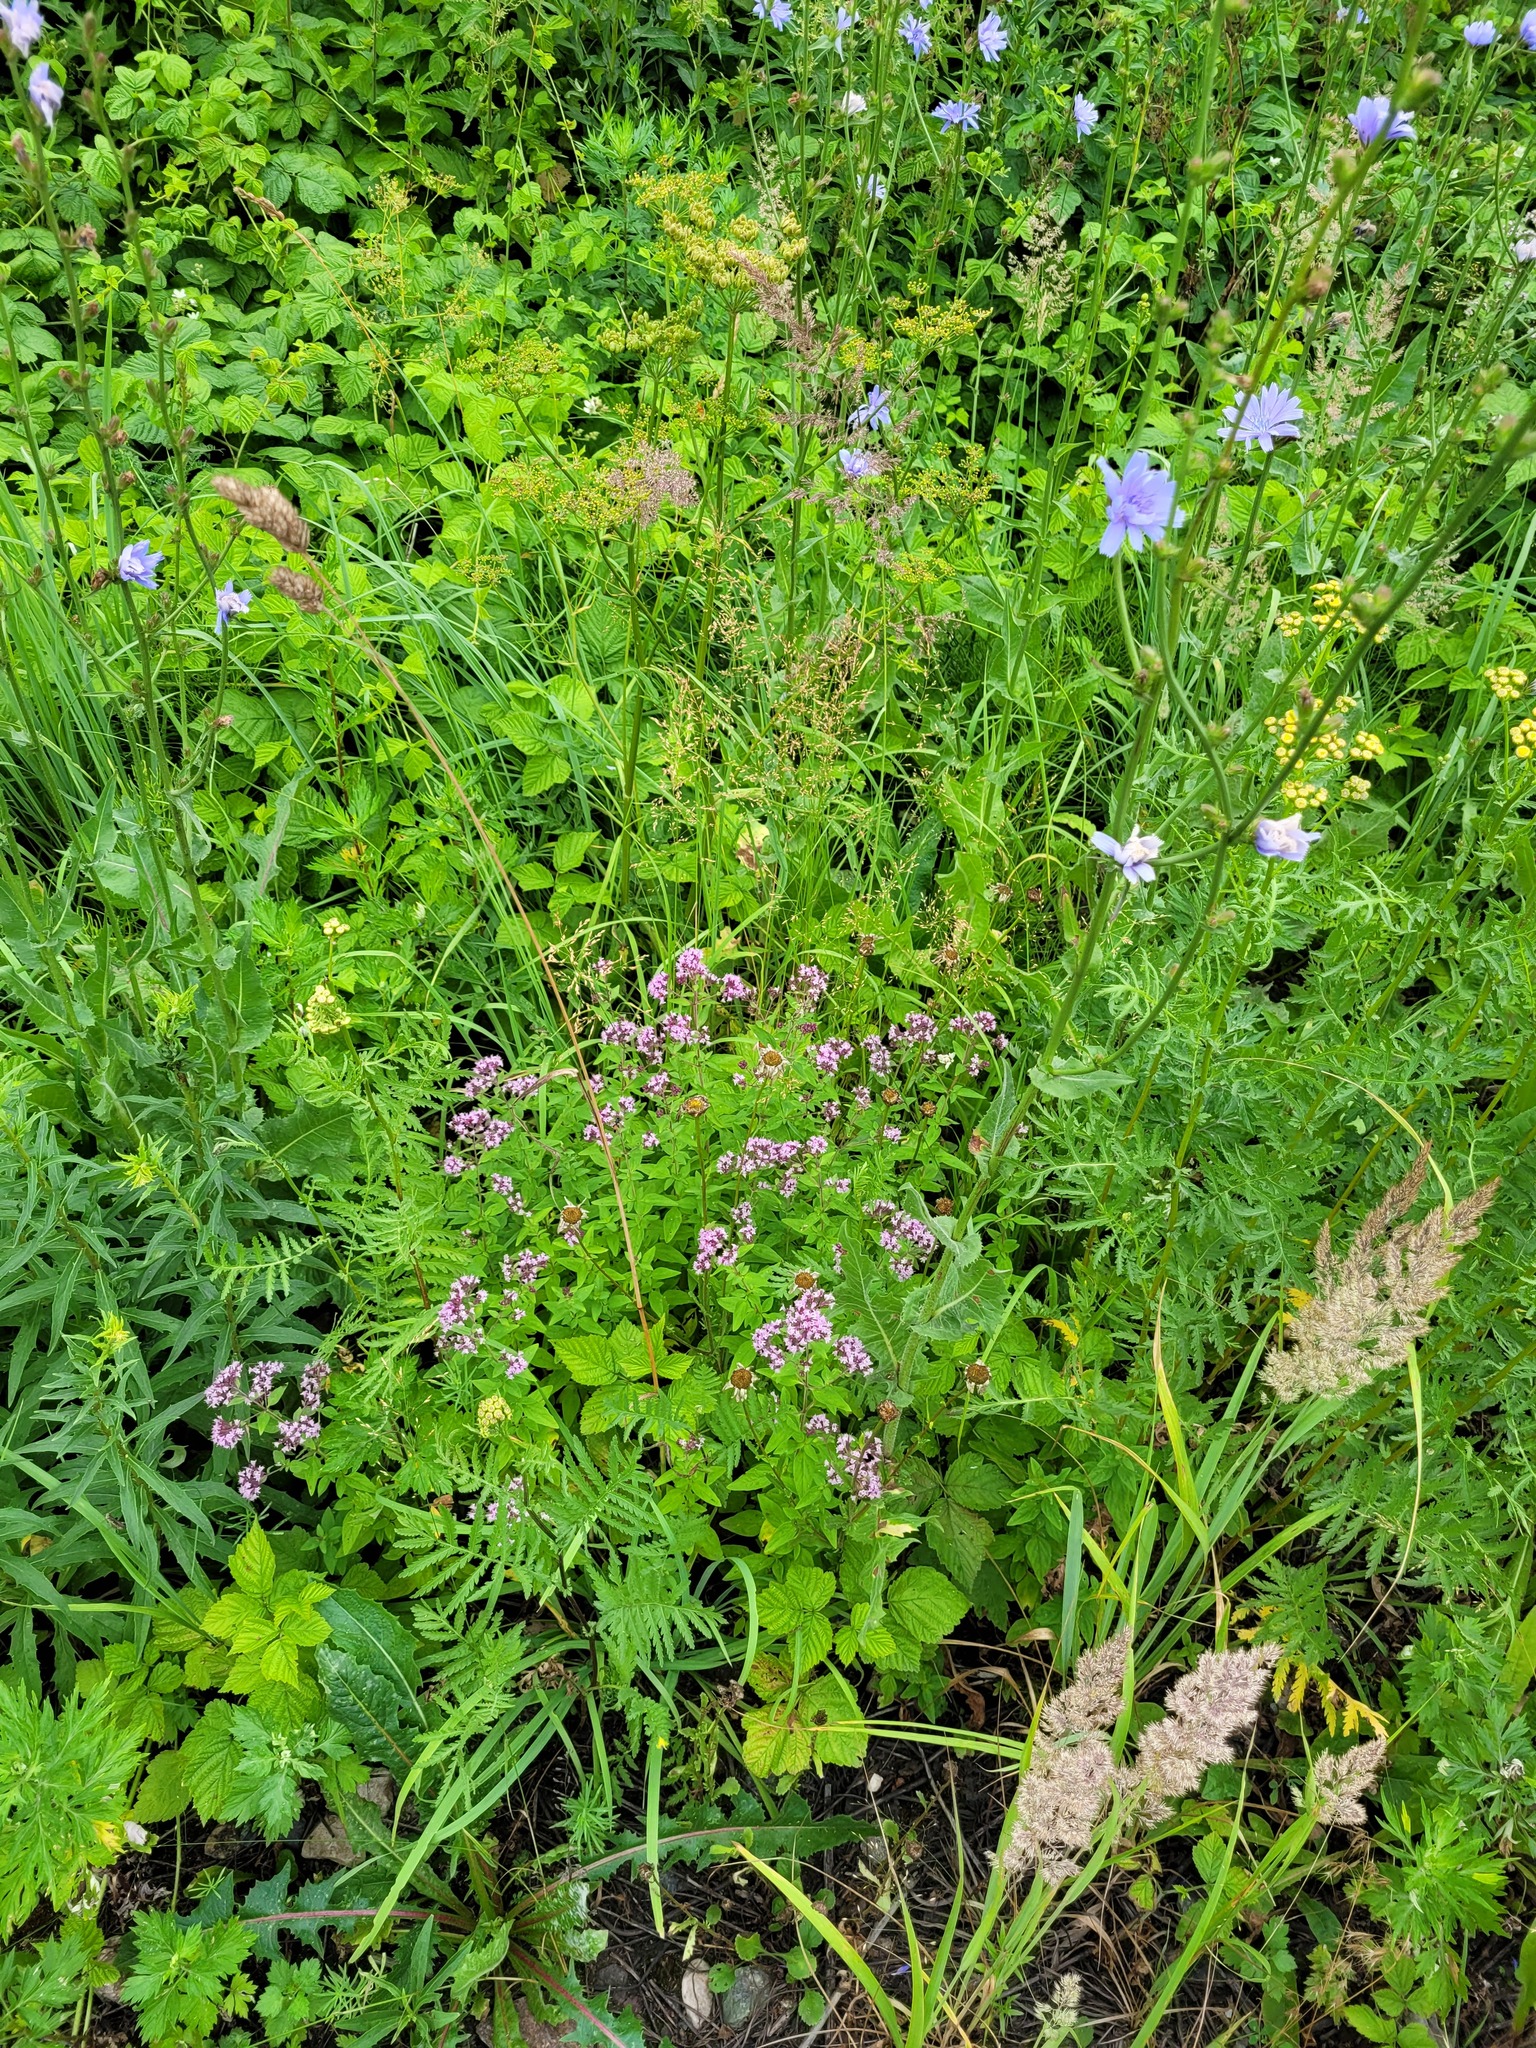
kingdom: Plantae
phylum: Tracheophyta
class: Magnoliopsida
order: Lamiales
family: Lamiaceae
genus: Origanum
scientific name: Origanum vulgare
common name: Wild marjoram
